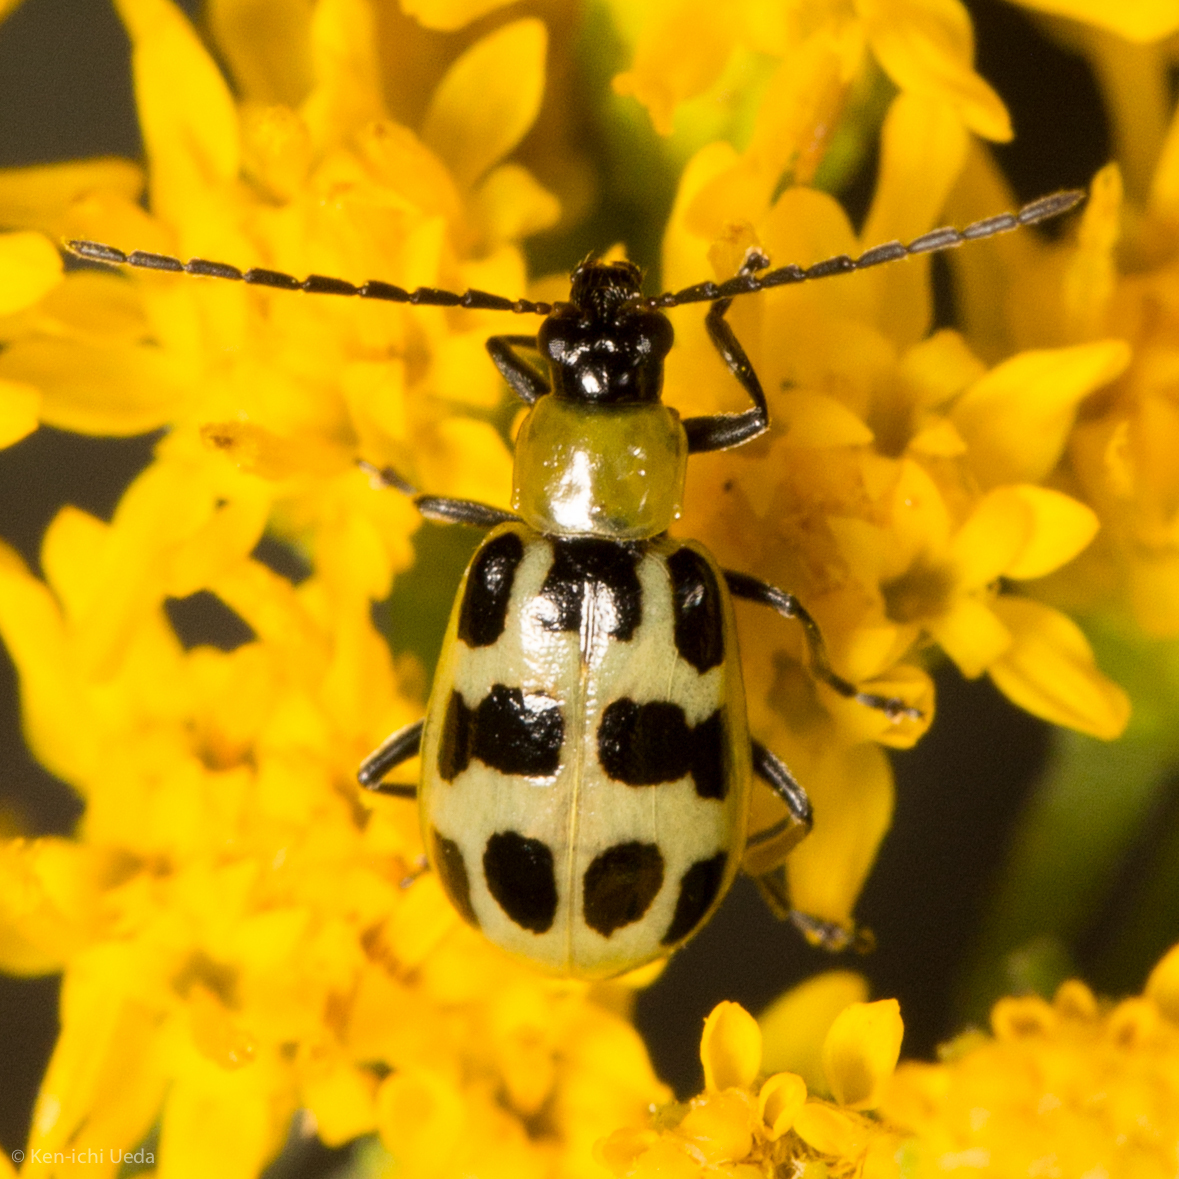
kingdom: Animalia
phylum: Arthropoda
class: Insecta
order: Coleoptera
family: Chrysomelidae
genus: Diabrotica
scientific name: Diabrotica undecimpunctata
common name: Spotted cucumber beetle
